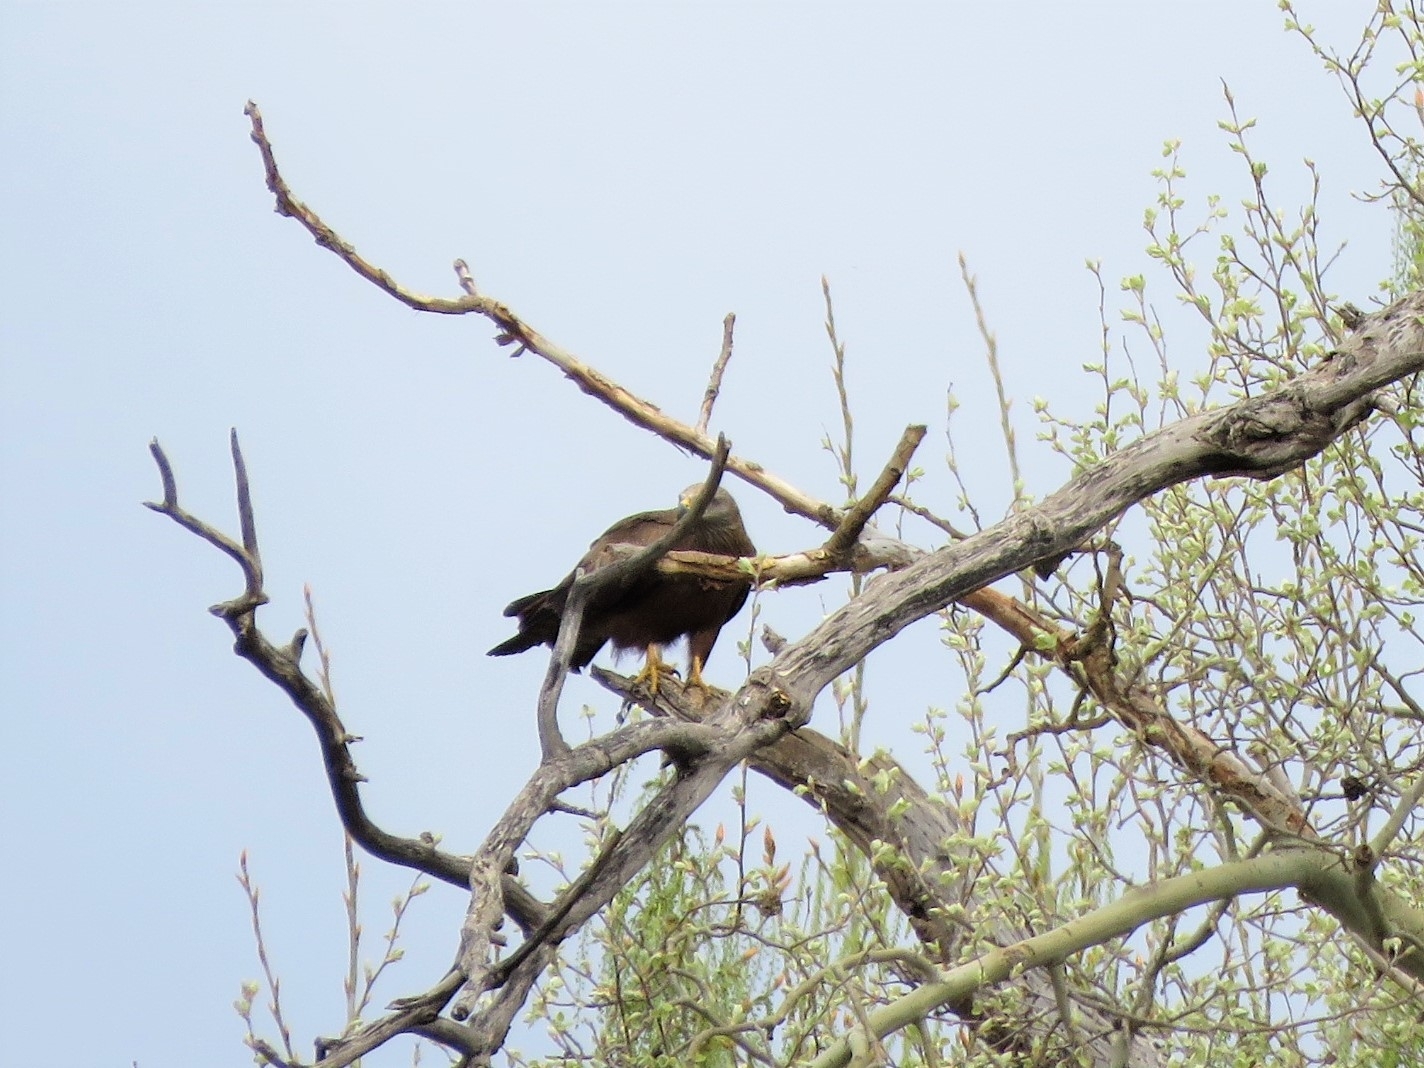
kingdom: Animalia
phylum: Chordata
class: Aves
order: Accipitriformes
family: Accipitridae
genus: Milvus
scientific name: Milvus migrans
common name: Black kite
